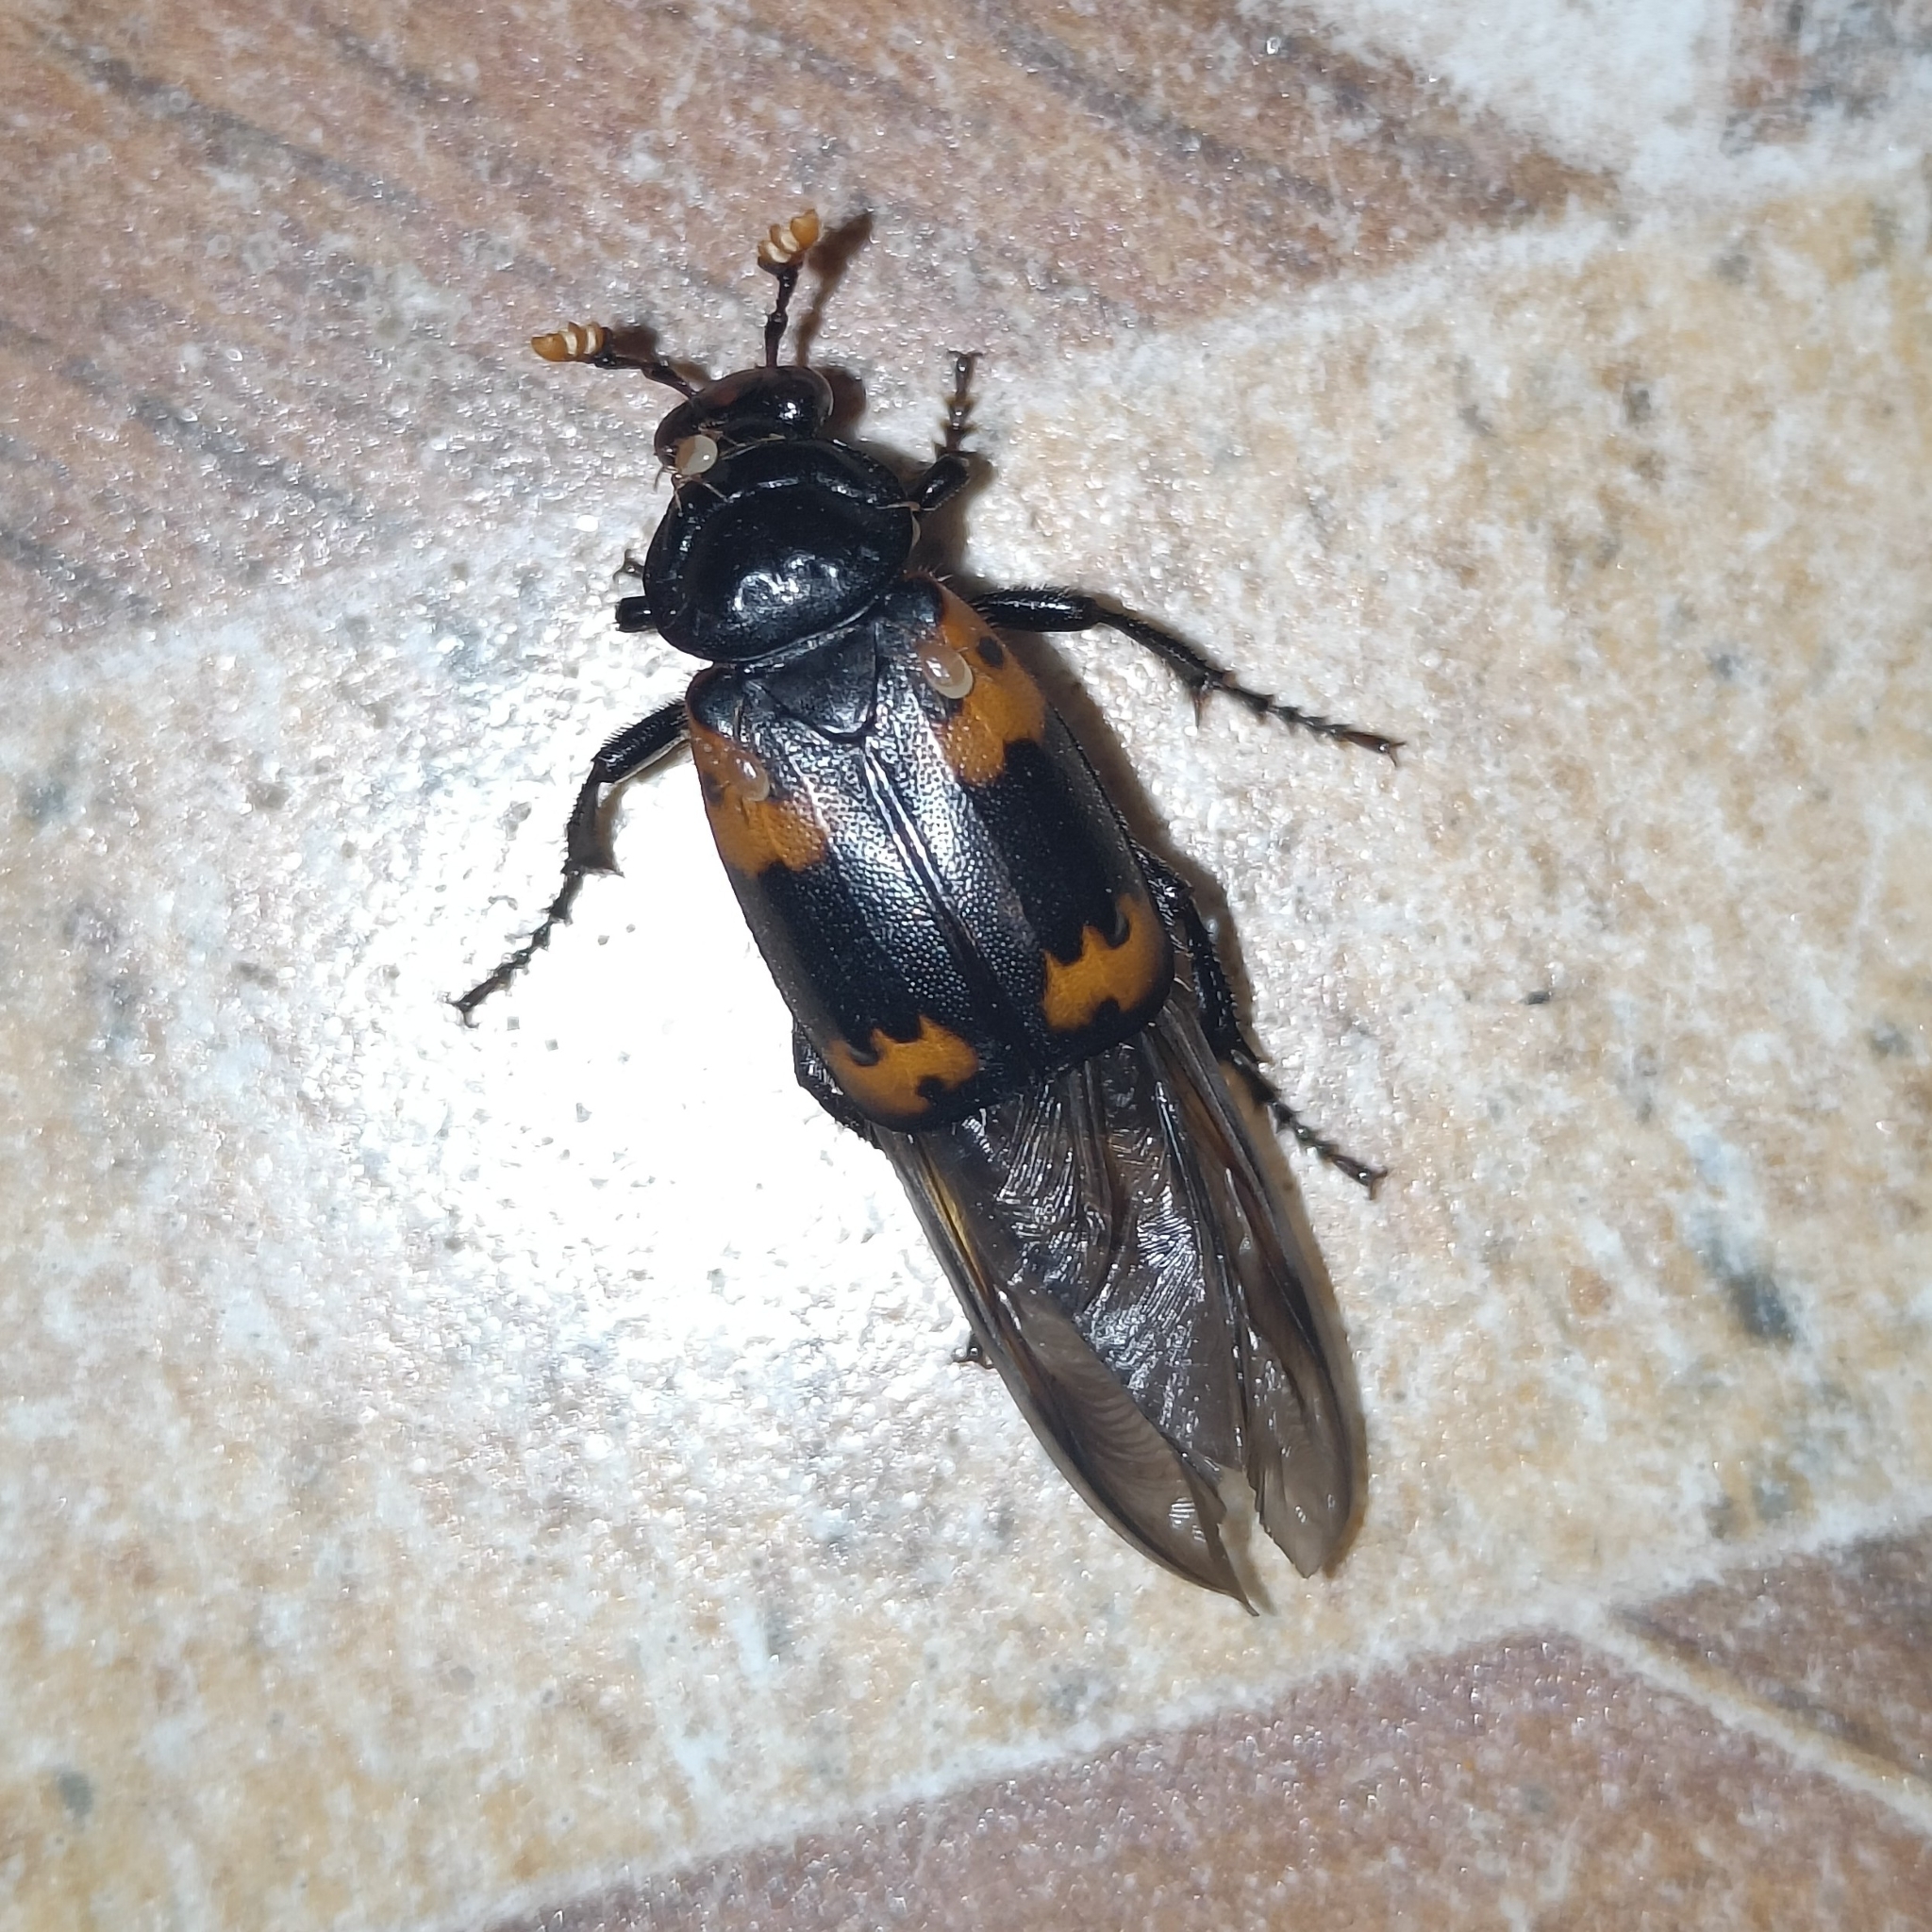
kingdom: Animalia
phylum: Arthropoda
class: Insecta
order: Coleoptera
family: Staphylinidae
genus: Nicrophorus
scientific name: Nicrophorus nepalensis
